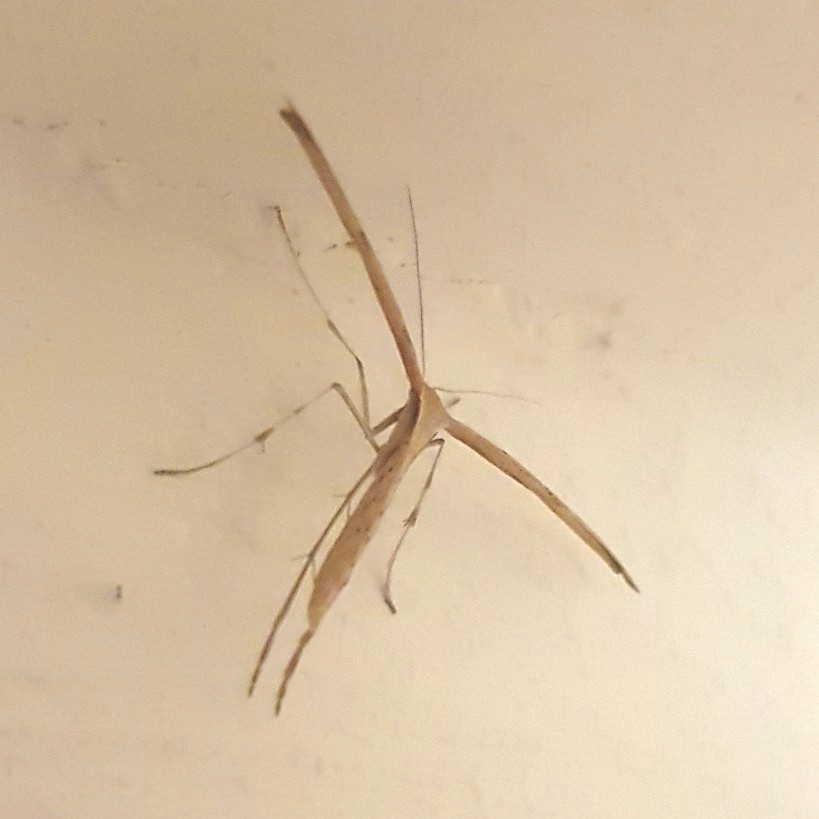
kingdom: Animalia
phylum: Arthropoda
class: Insecta
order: Lepidoptera
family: Pterophoridae
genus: Emmelina
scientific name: Emmelina monodactyla
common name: Common plume
